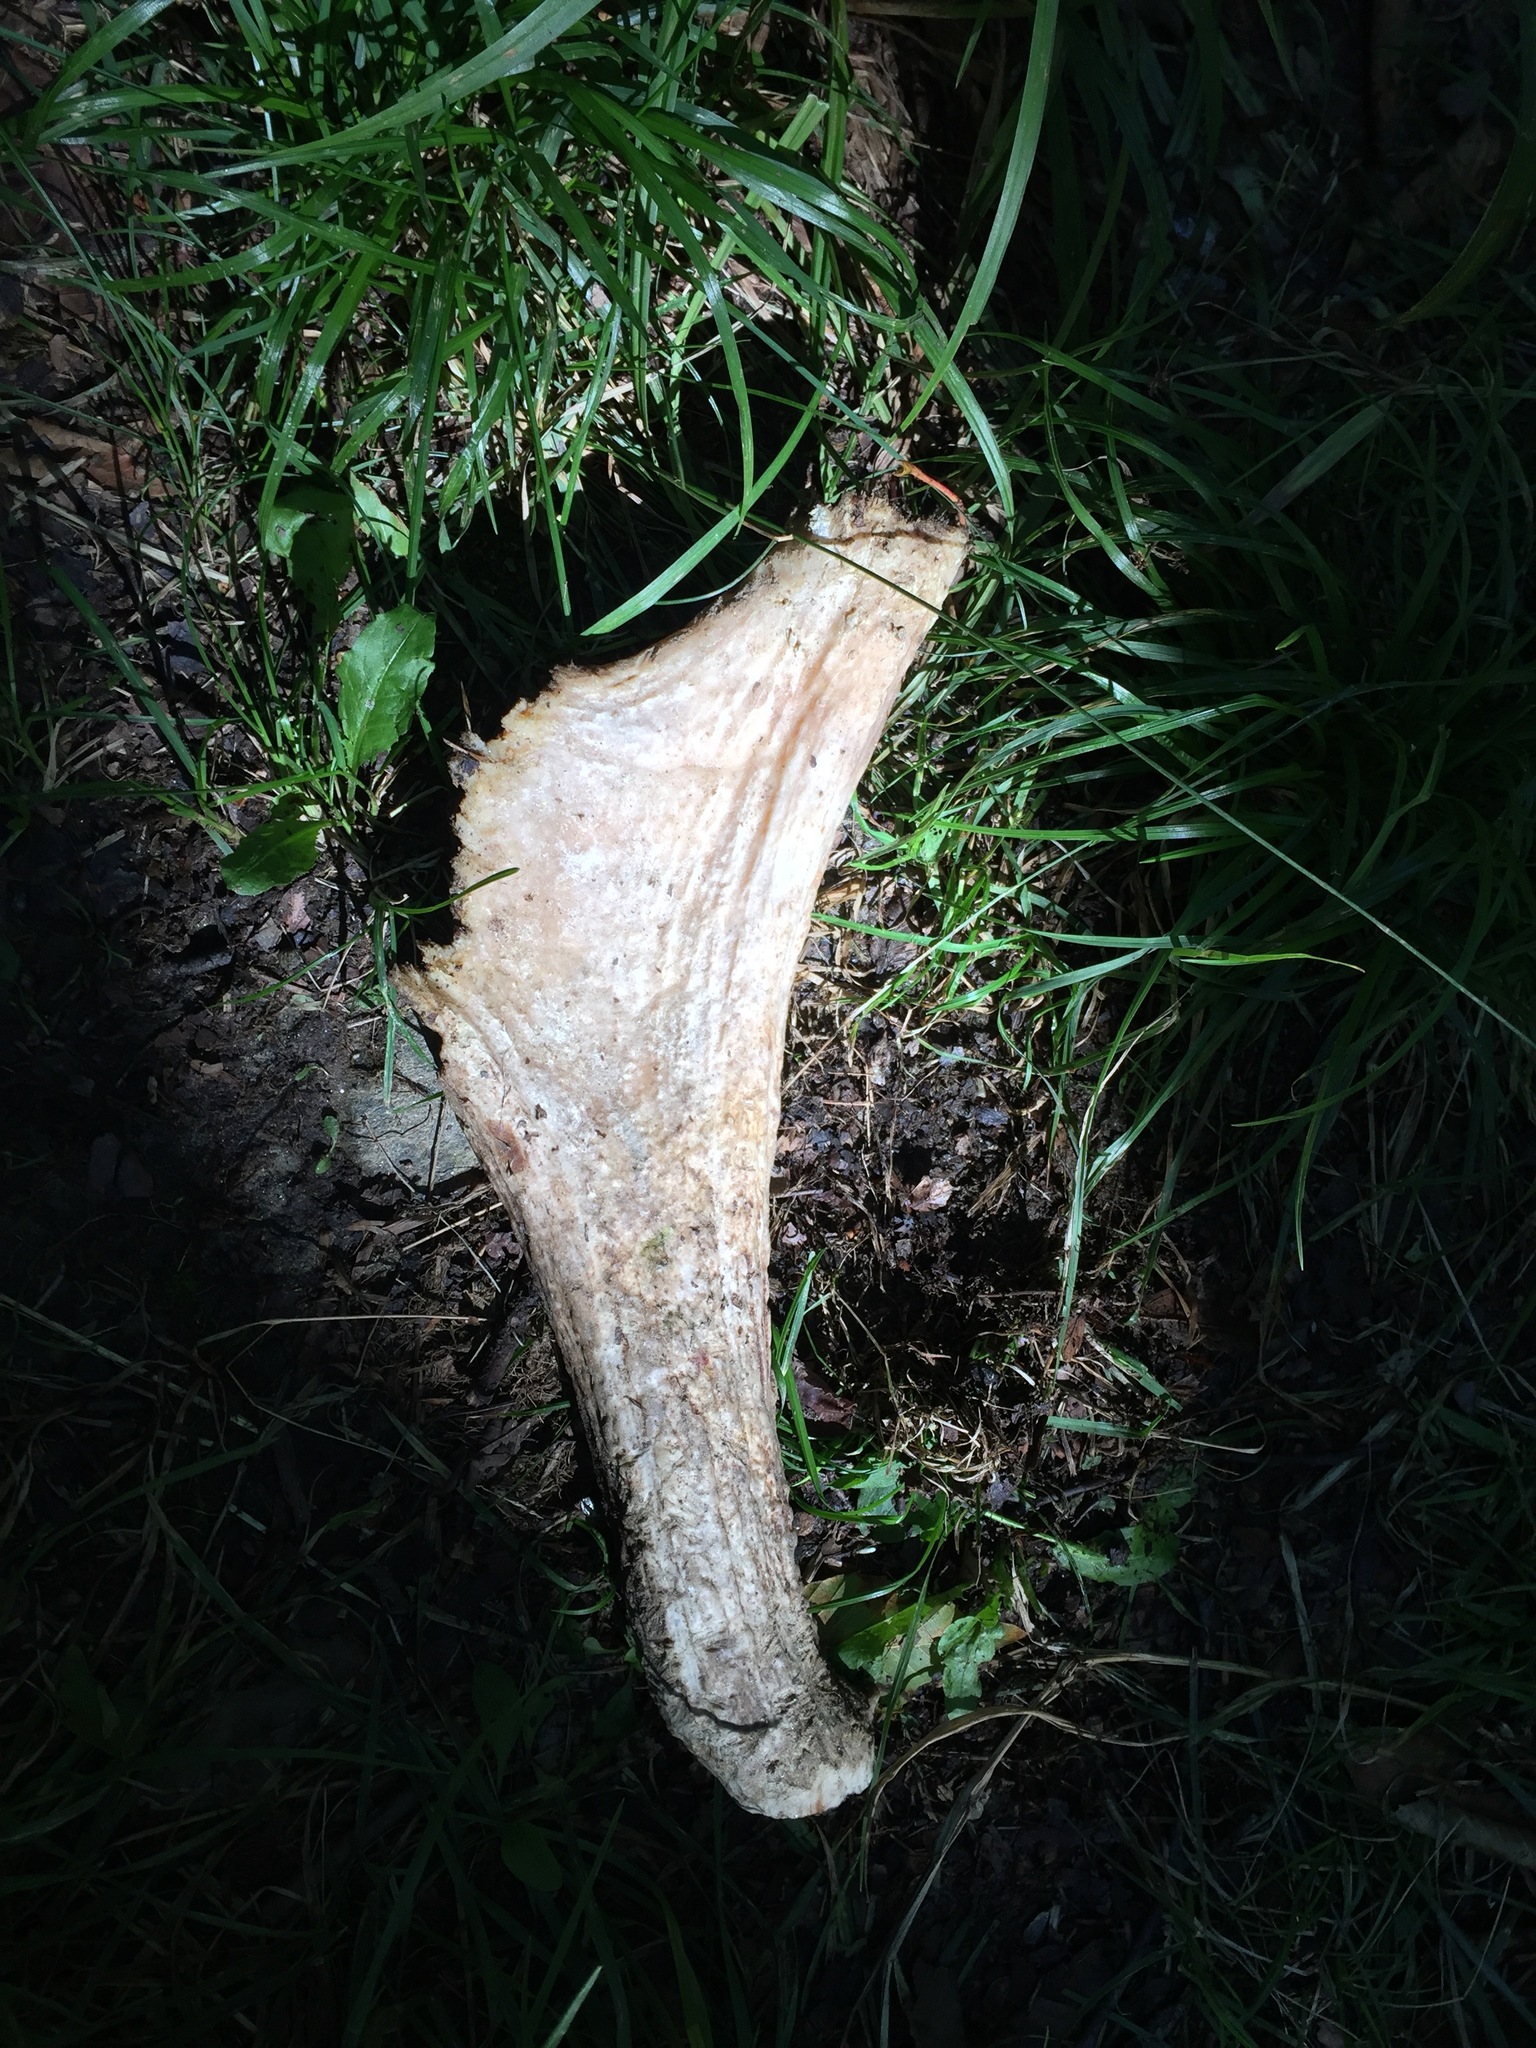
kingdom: Animalia
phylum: Chordata
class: Mammalia
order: Artiodactyla
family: Cervidae
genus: Alces
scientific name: Alces alces
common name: Moose
